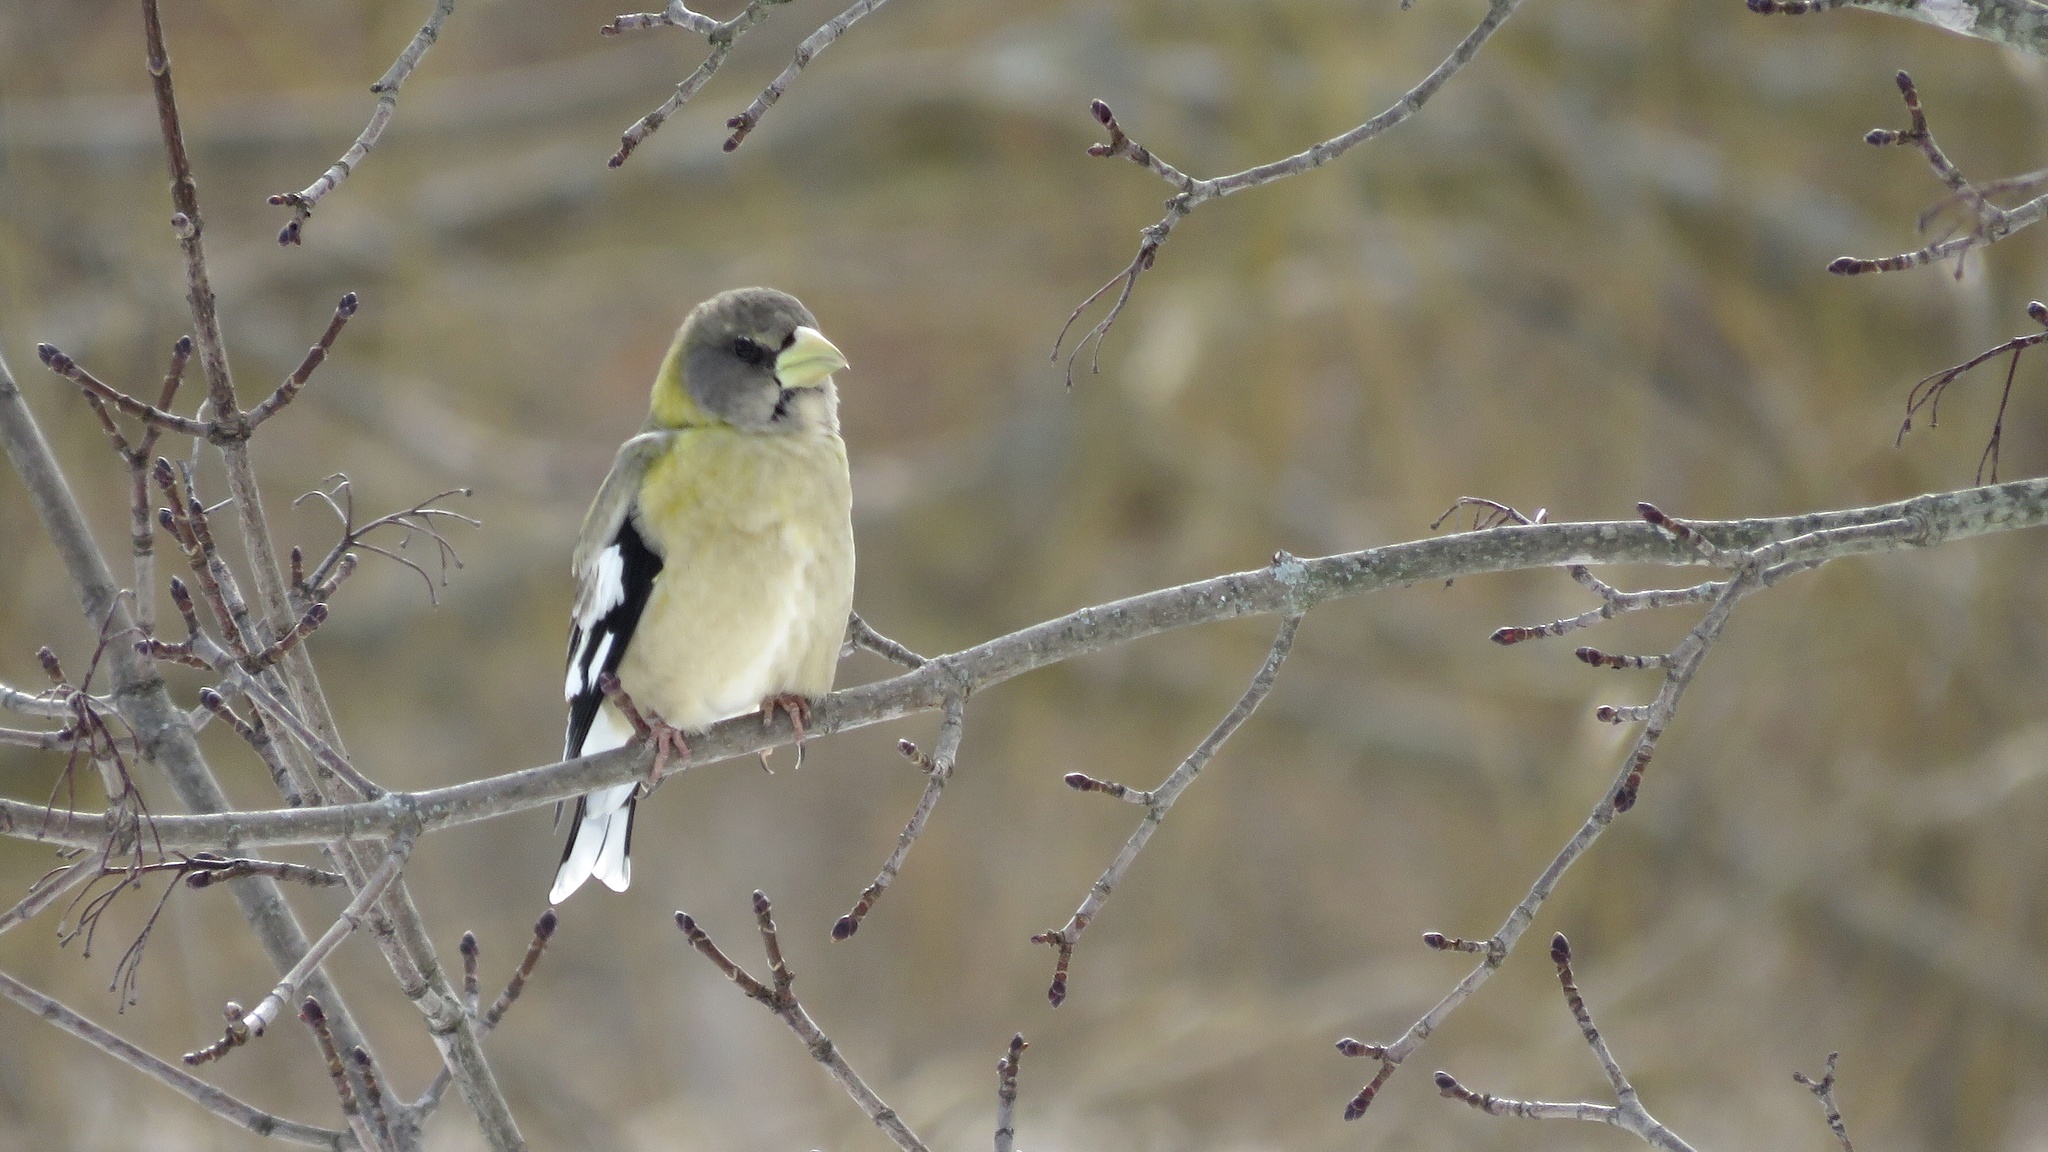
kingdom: Animalia
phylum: Chordata
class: Aves
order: Passeriformes
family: Fringillidae
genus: Hesperiphona
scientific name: Hesperiphona vespertina
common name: Evening grosbeak
